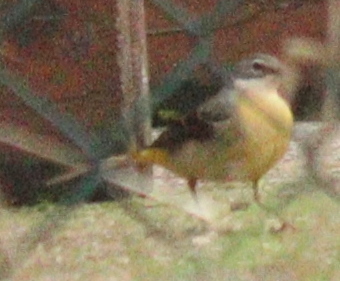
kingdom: Animalia
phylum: Chordata
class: Aves
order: Passeriformes
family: Motacillidae
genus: Motacilla
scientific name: Motacilla cinerea
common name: Grey wagtail
